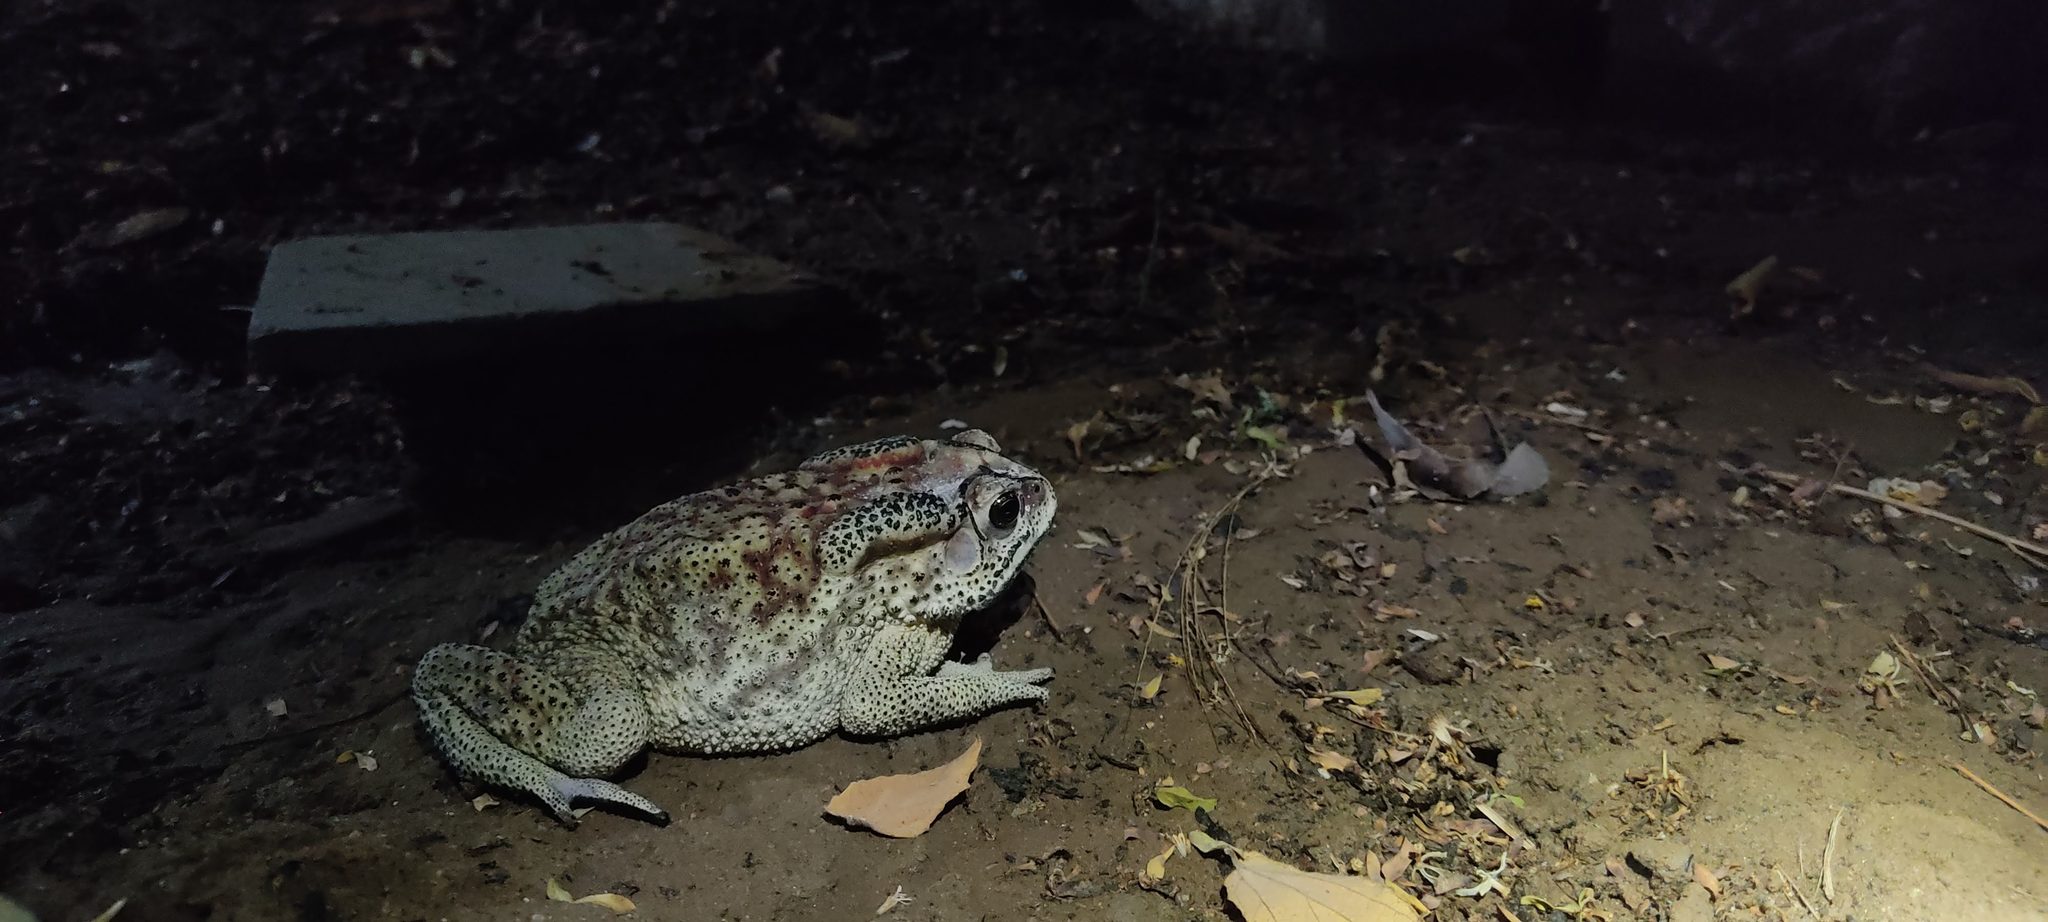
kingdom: Animalia
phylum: Chordata
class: Amphibia
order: Anura
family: Bufonidae
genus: Duttaphrynus
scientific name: Duttaphrynus melanostictus
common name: Common sunda toad
